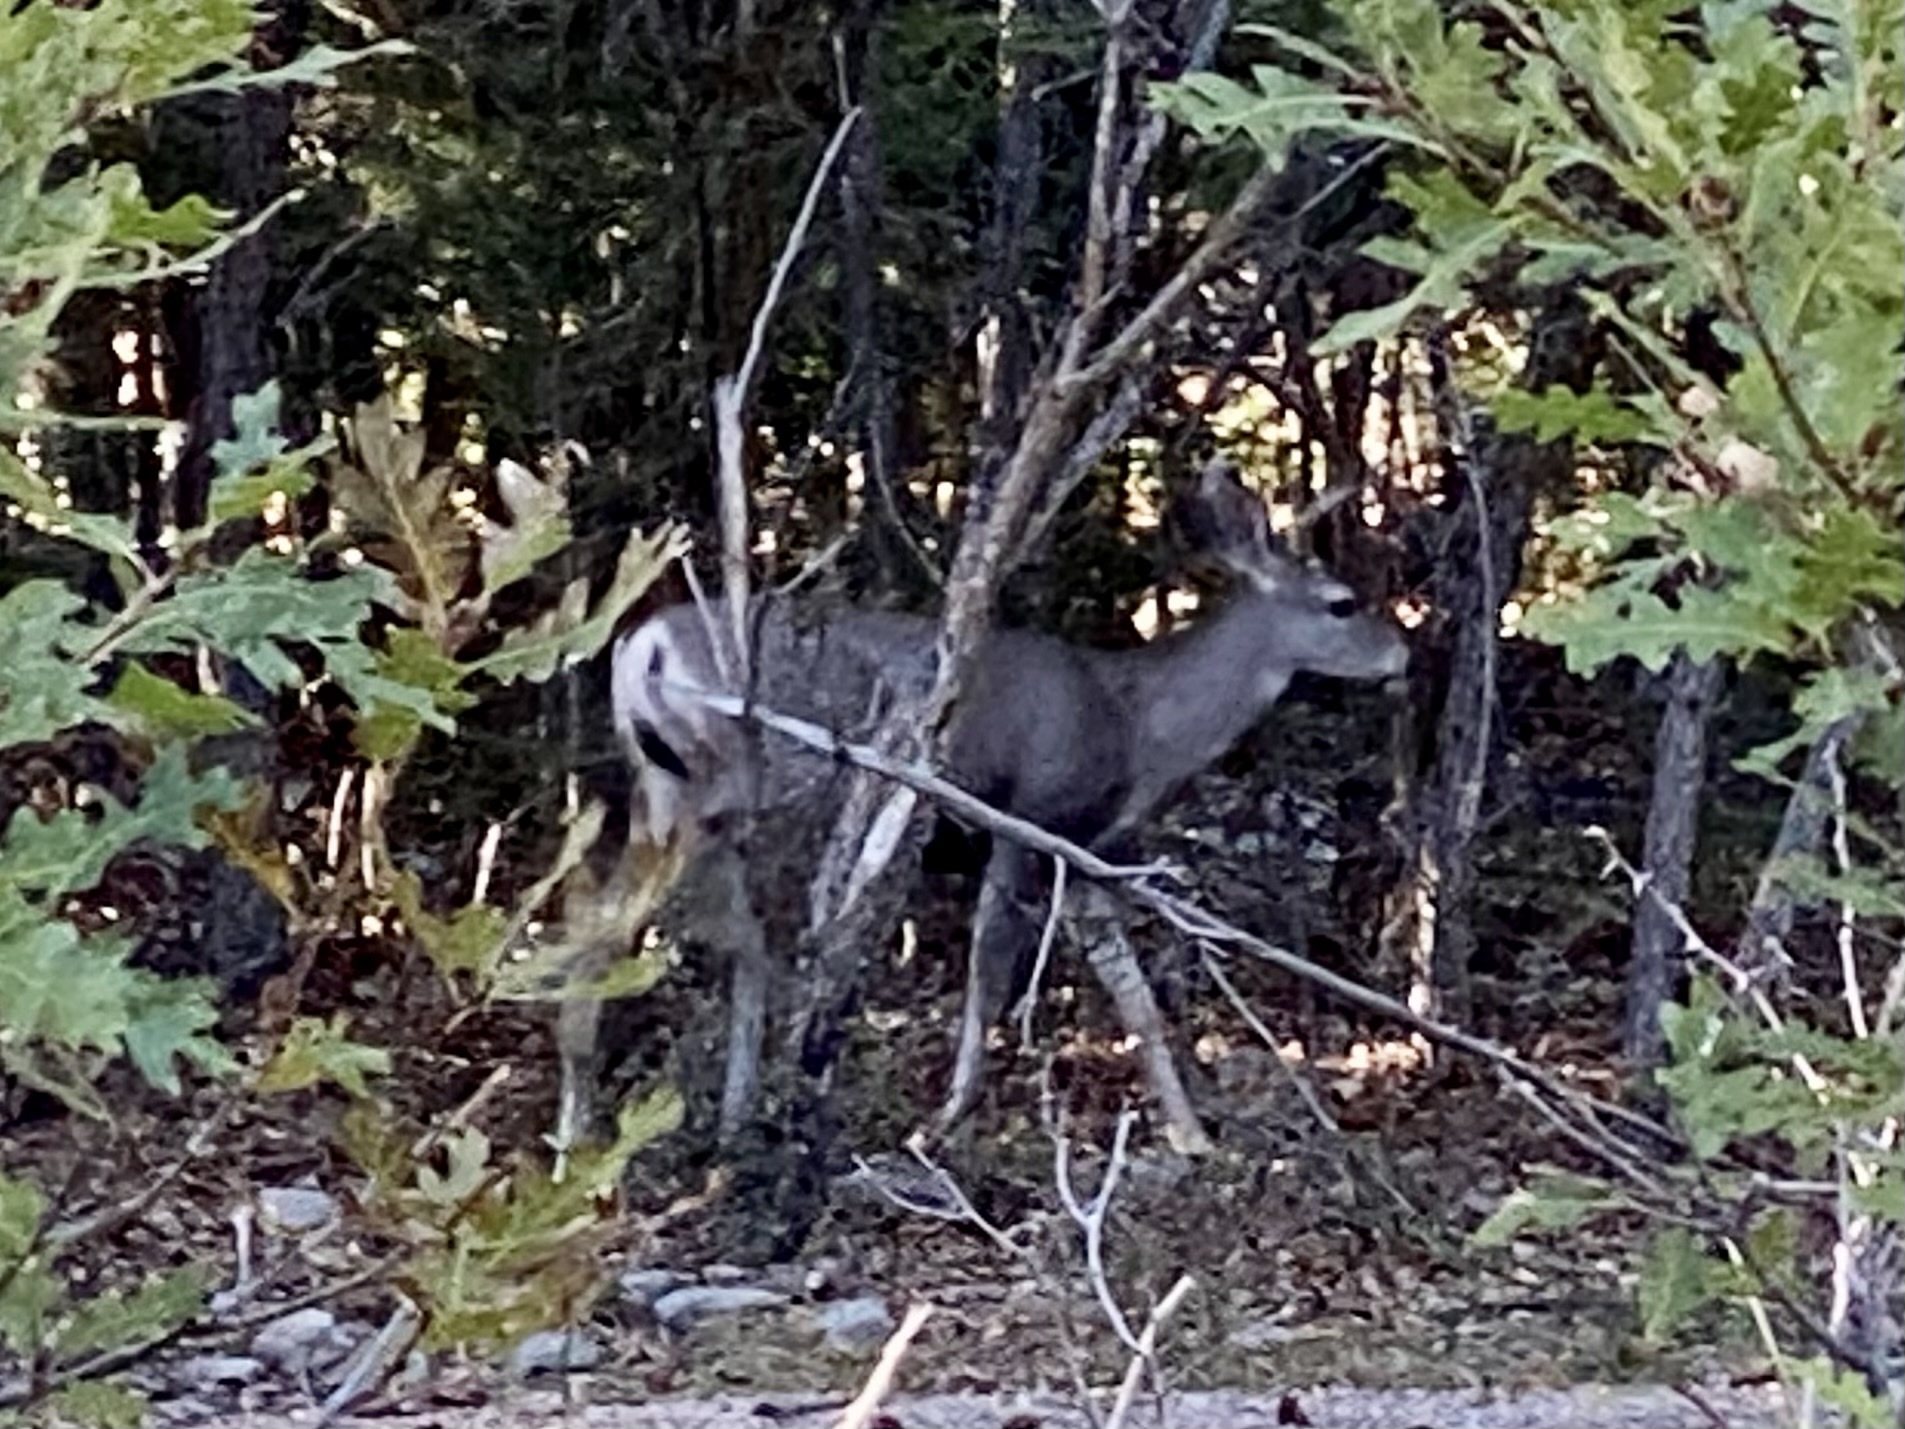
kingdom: Animalia
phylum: Chordata
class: Mammalia
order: Artiodactyla
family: Cervidae
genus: Odocoileus
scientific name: Odocoileus hemionus
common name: Mule deer
